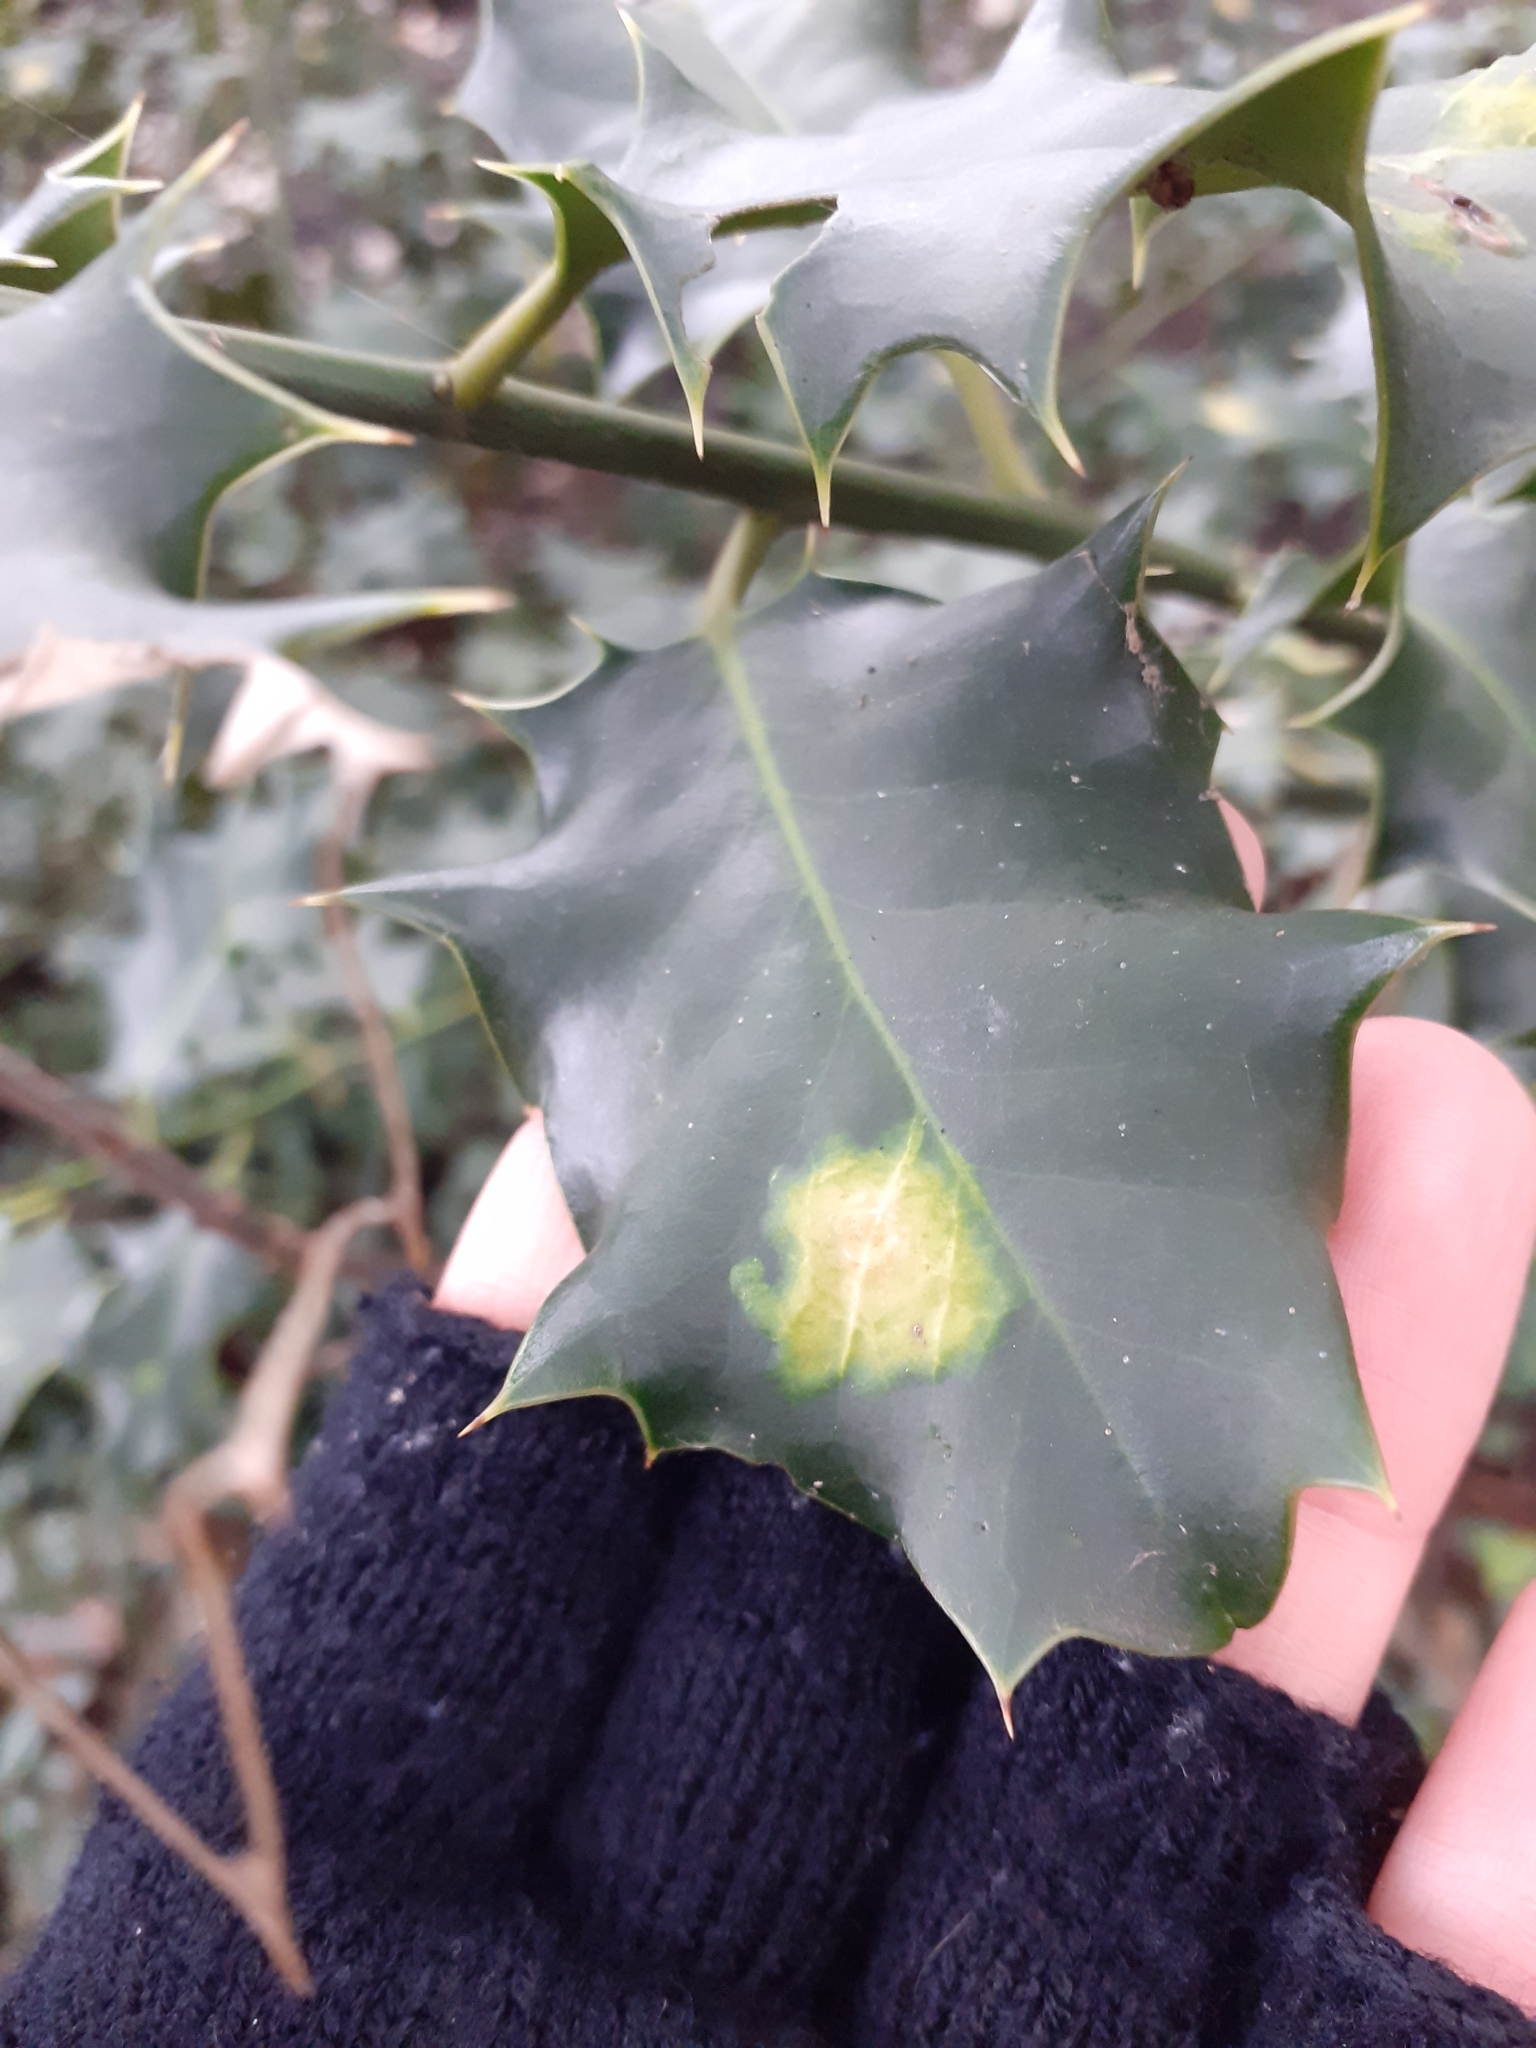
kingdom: Animalia
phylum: Arthropoda
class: Insecta
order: Diptera
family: Agromyzidae
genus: Phytomyza
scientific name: Phytomyza ilicis
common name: Holly leafminer
